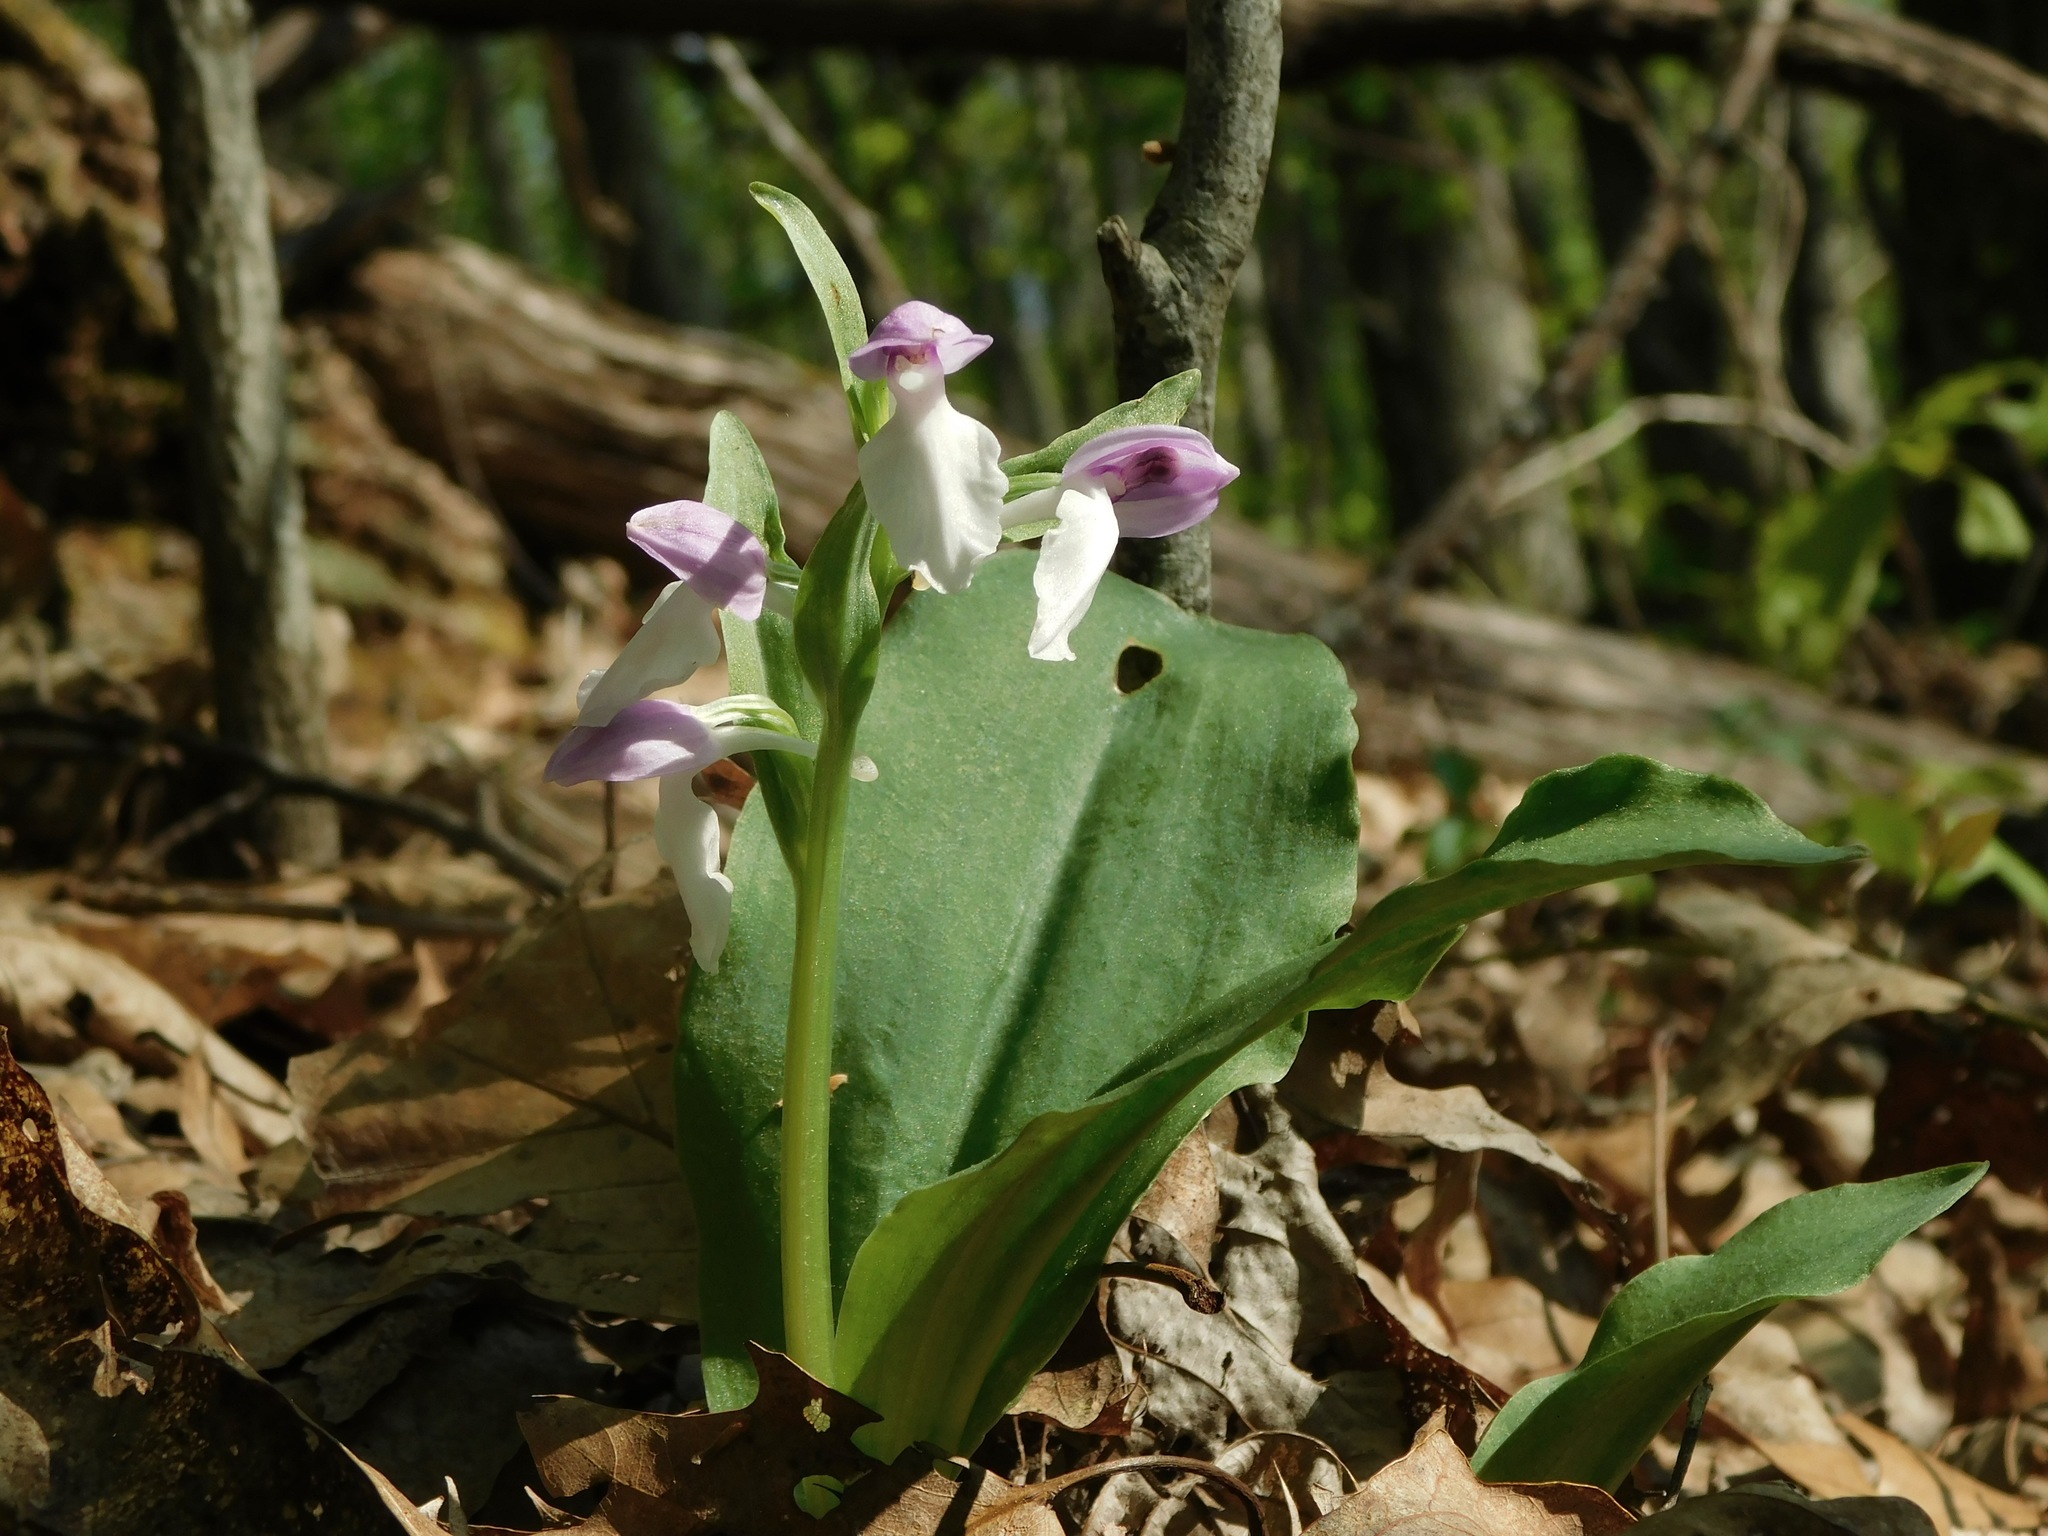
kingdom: Plantae
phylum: Tracheophyta
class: Liliopsida
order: Asparagales
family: Orchidaceae
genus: Galearis
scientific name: Galearis spectabilis
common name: Purple-hooded orchis
